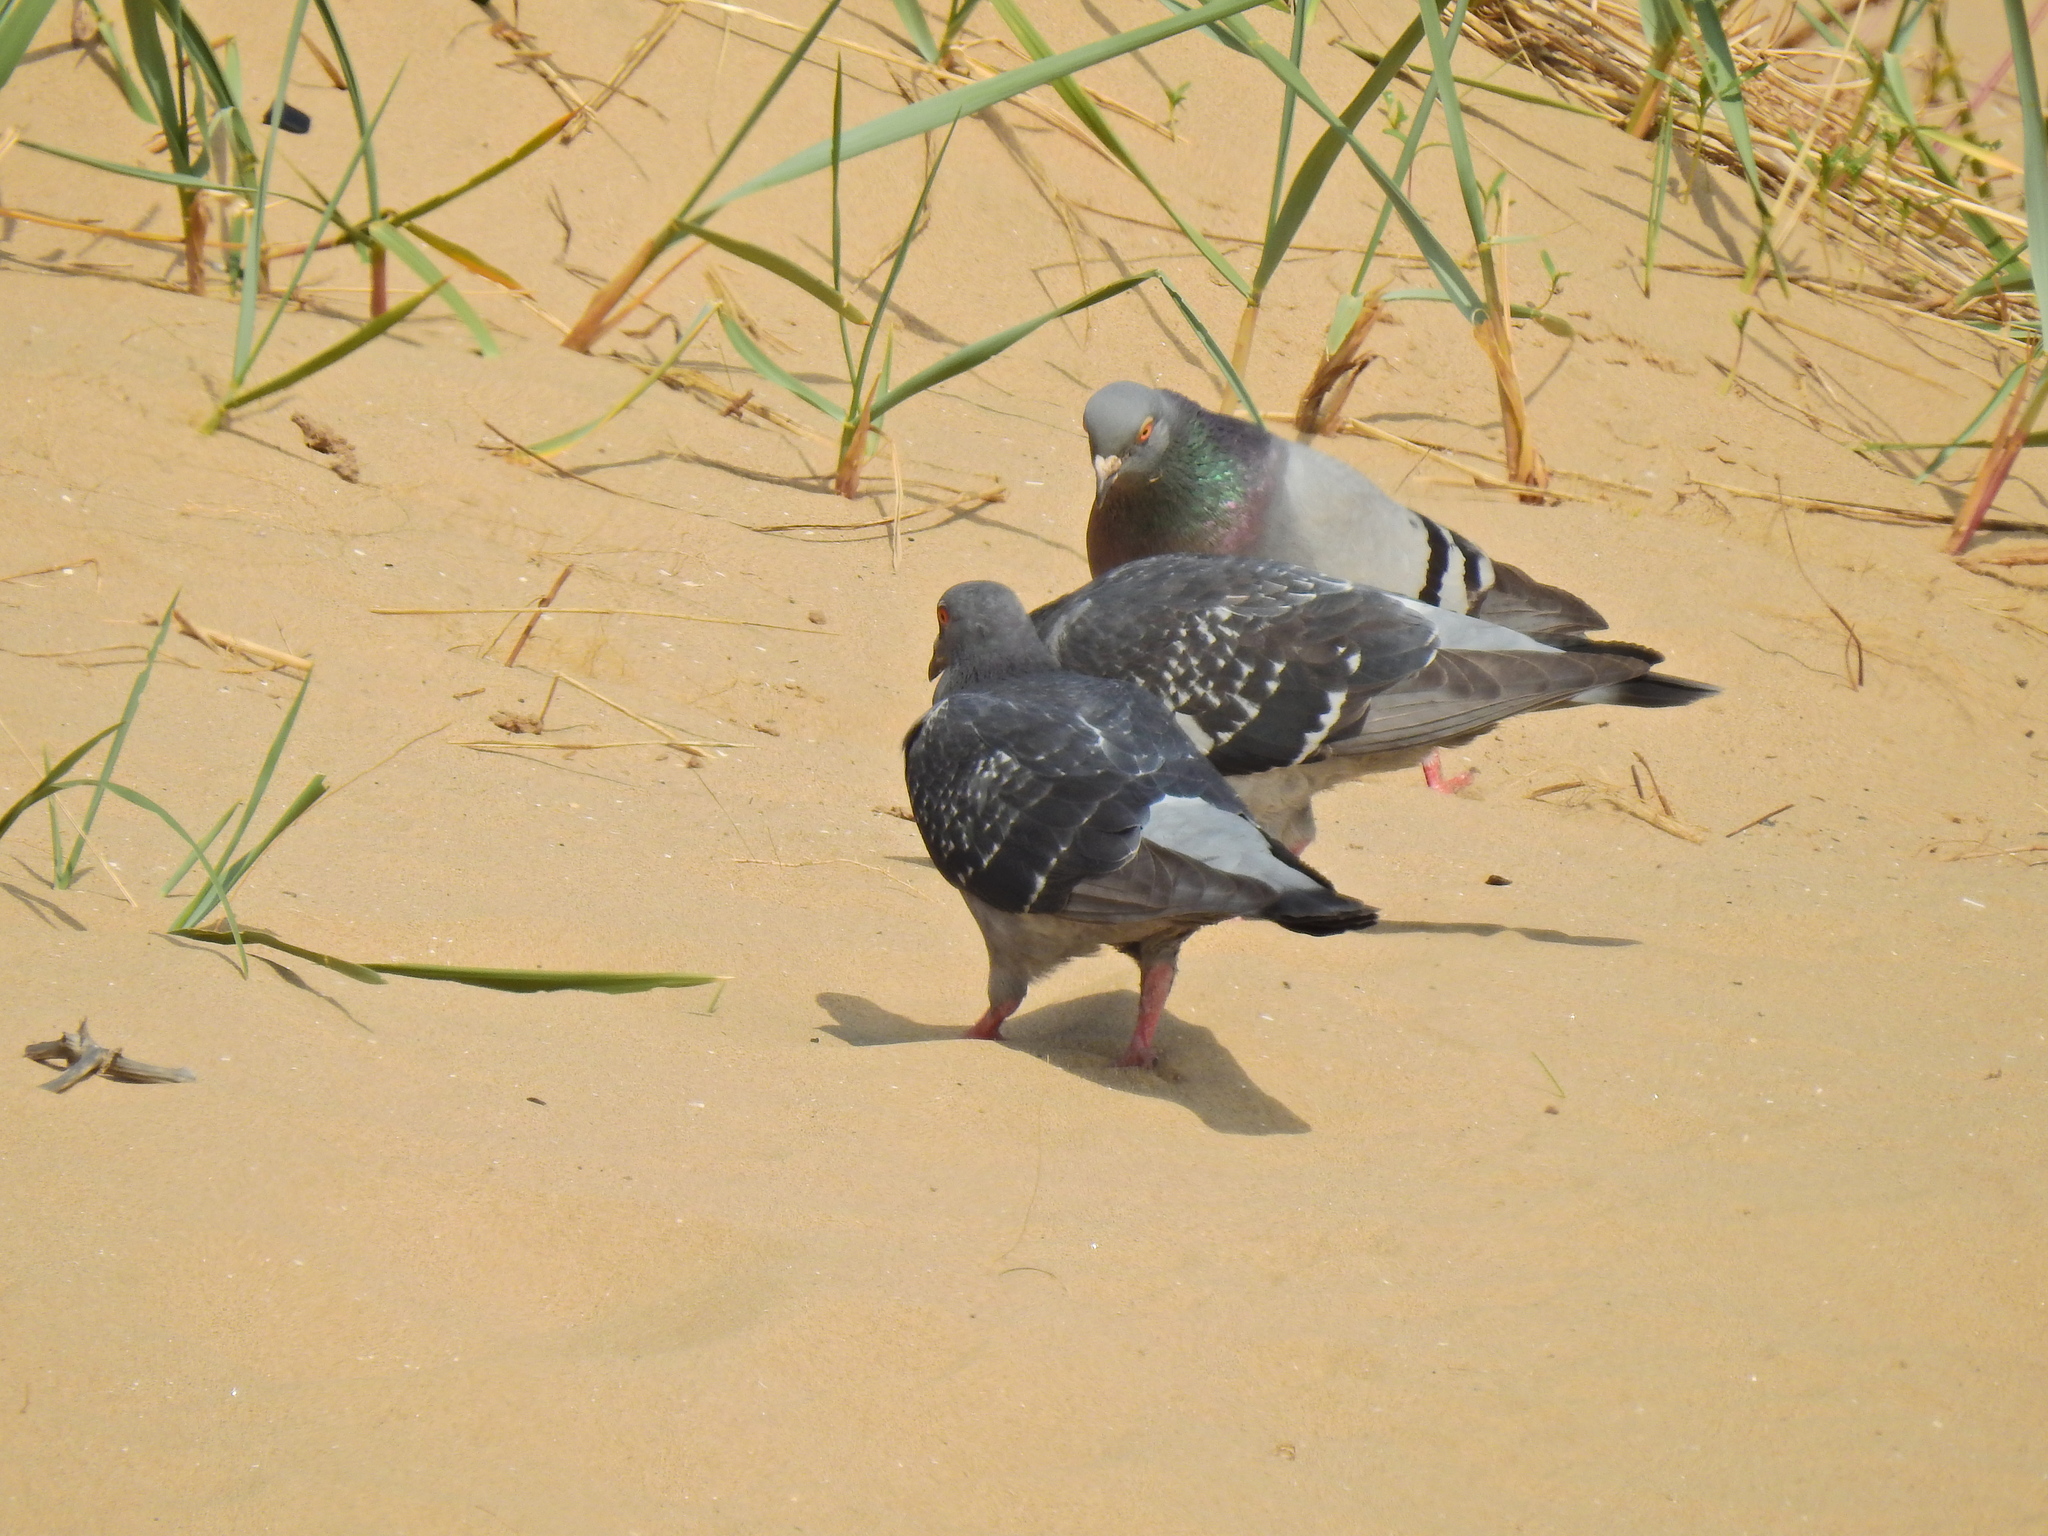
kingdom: Animalia
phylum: Chordata
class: Aves
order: Columbiformes
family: Columbidae
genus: Columba
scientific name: Columba livia
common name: Rock pigeon
